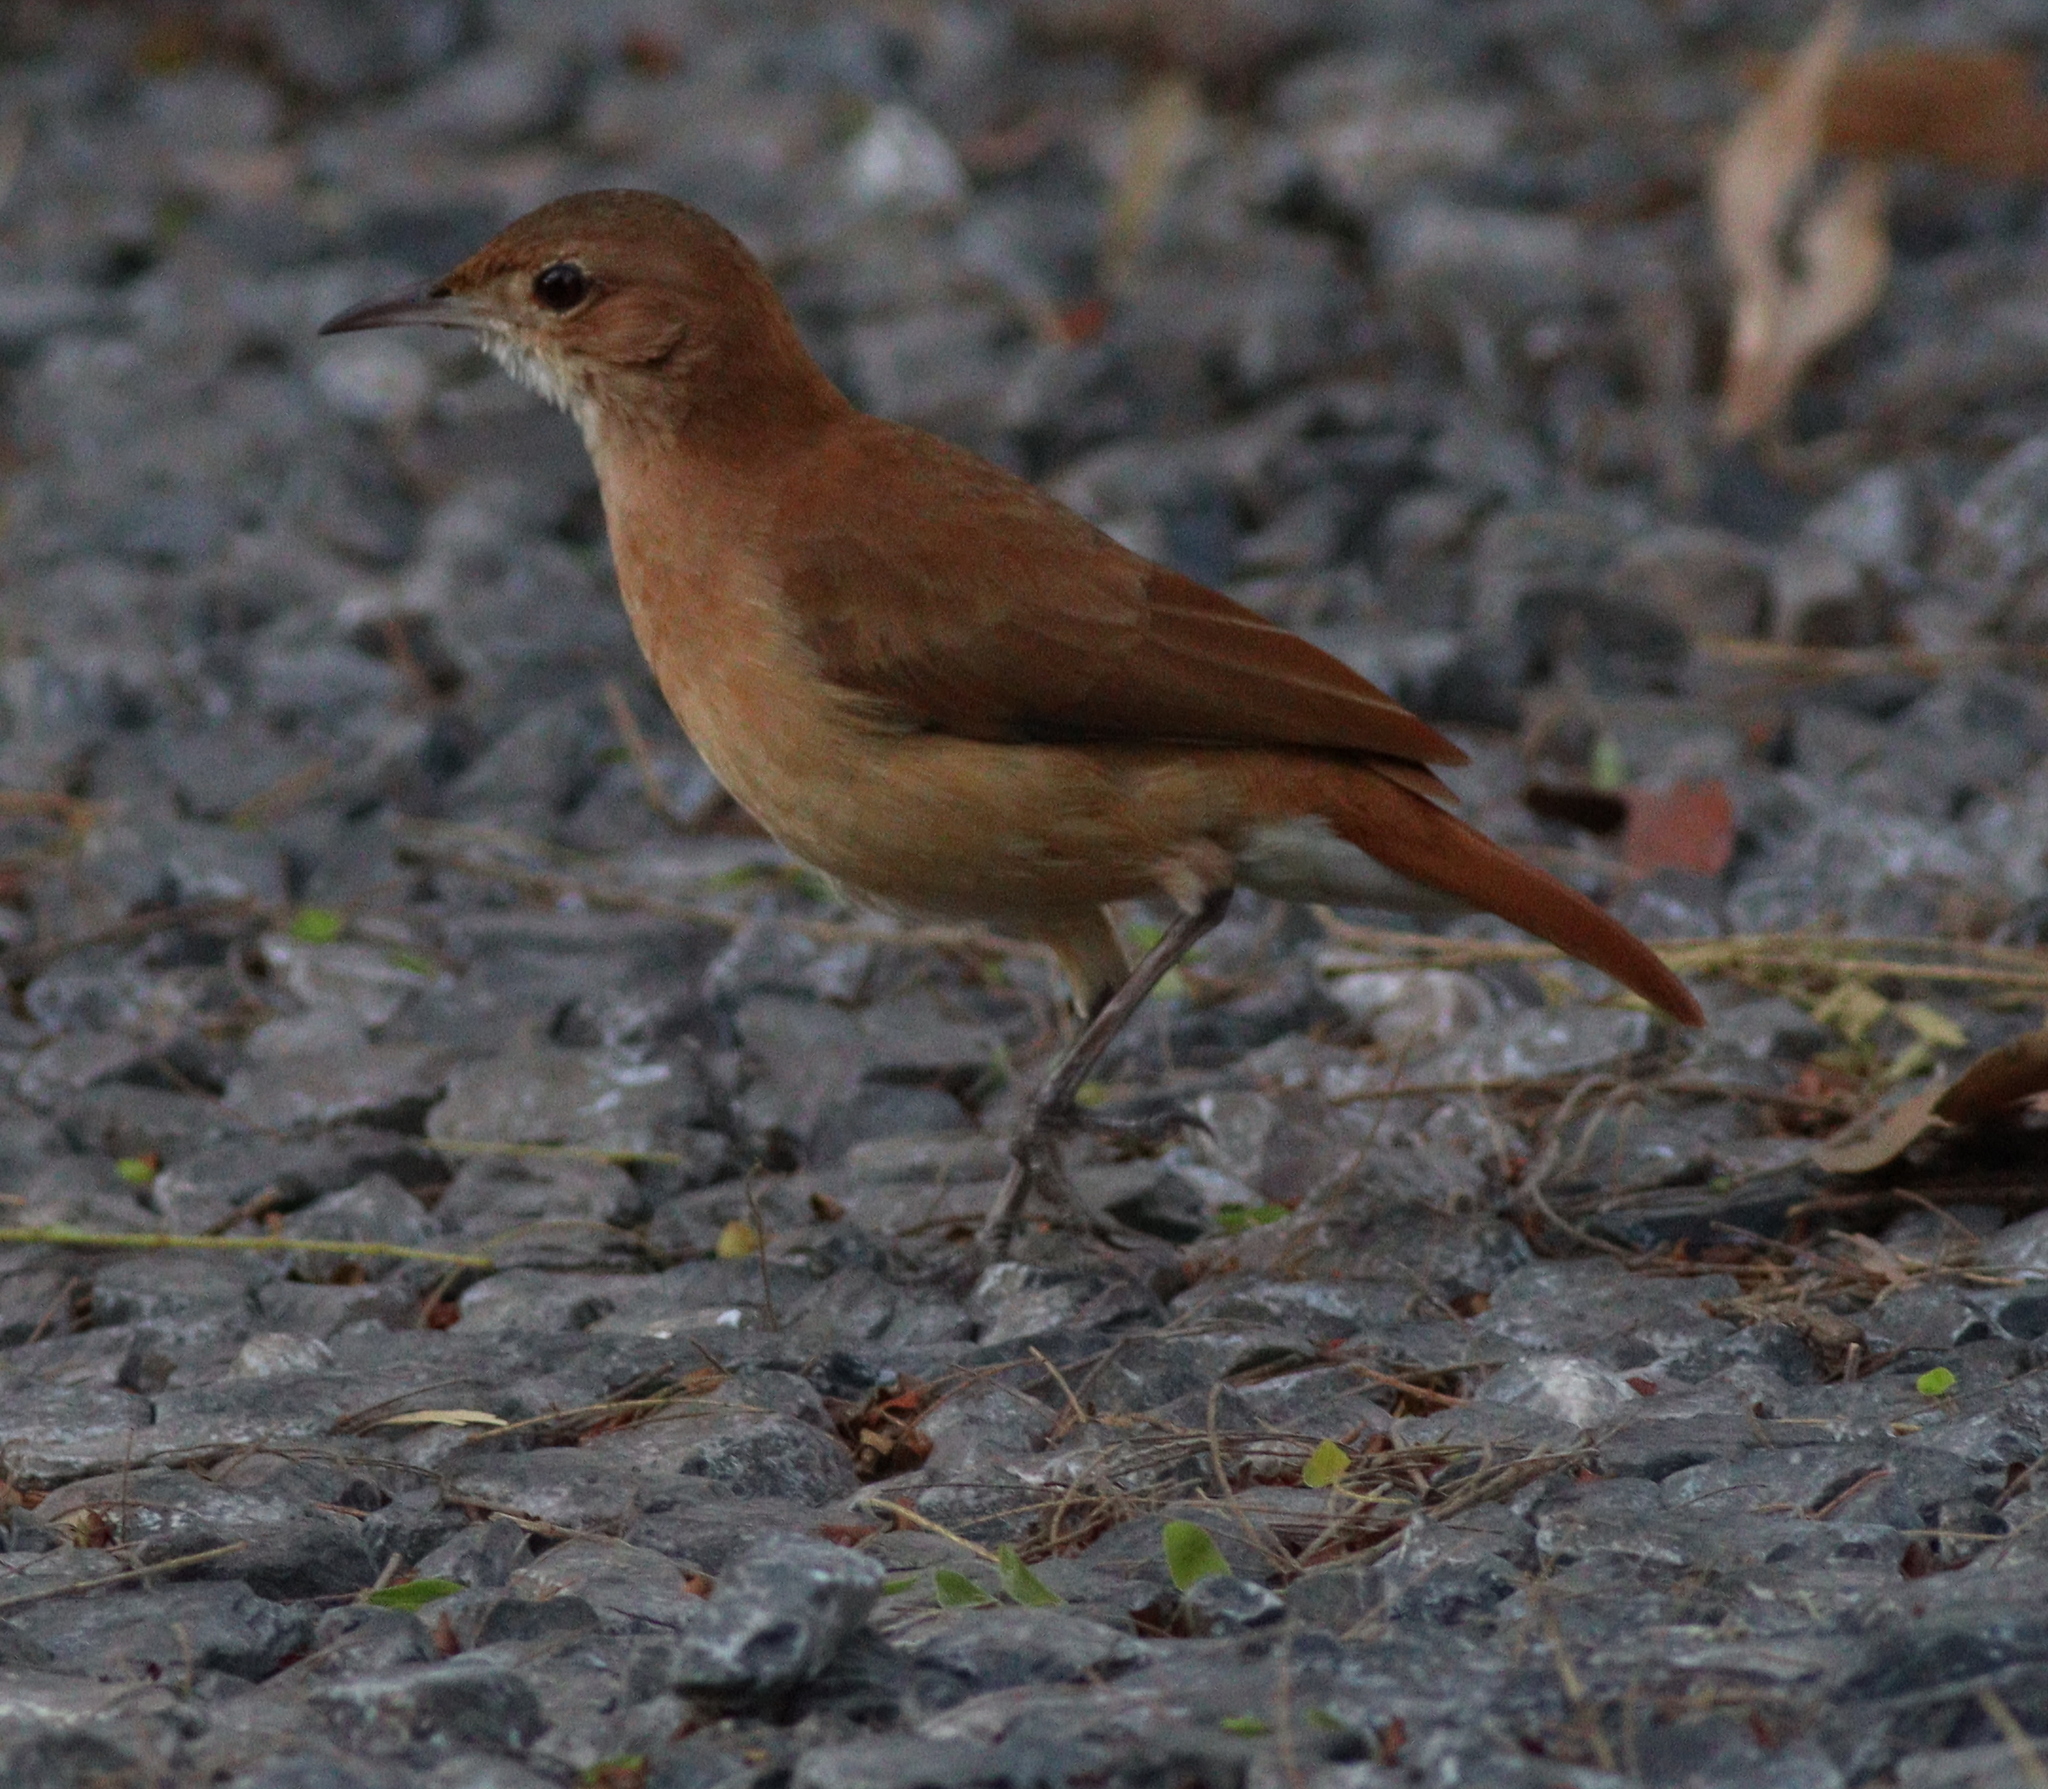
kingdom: Animalia
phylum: Chordata
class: Aves
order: Passeriformes
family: Furnariidae
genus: Furnarius
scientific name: Furnarius rufus
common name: Rufous hornero
